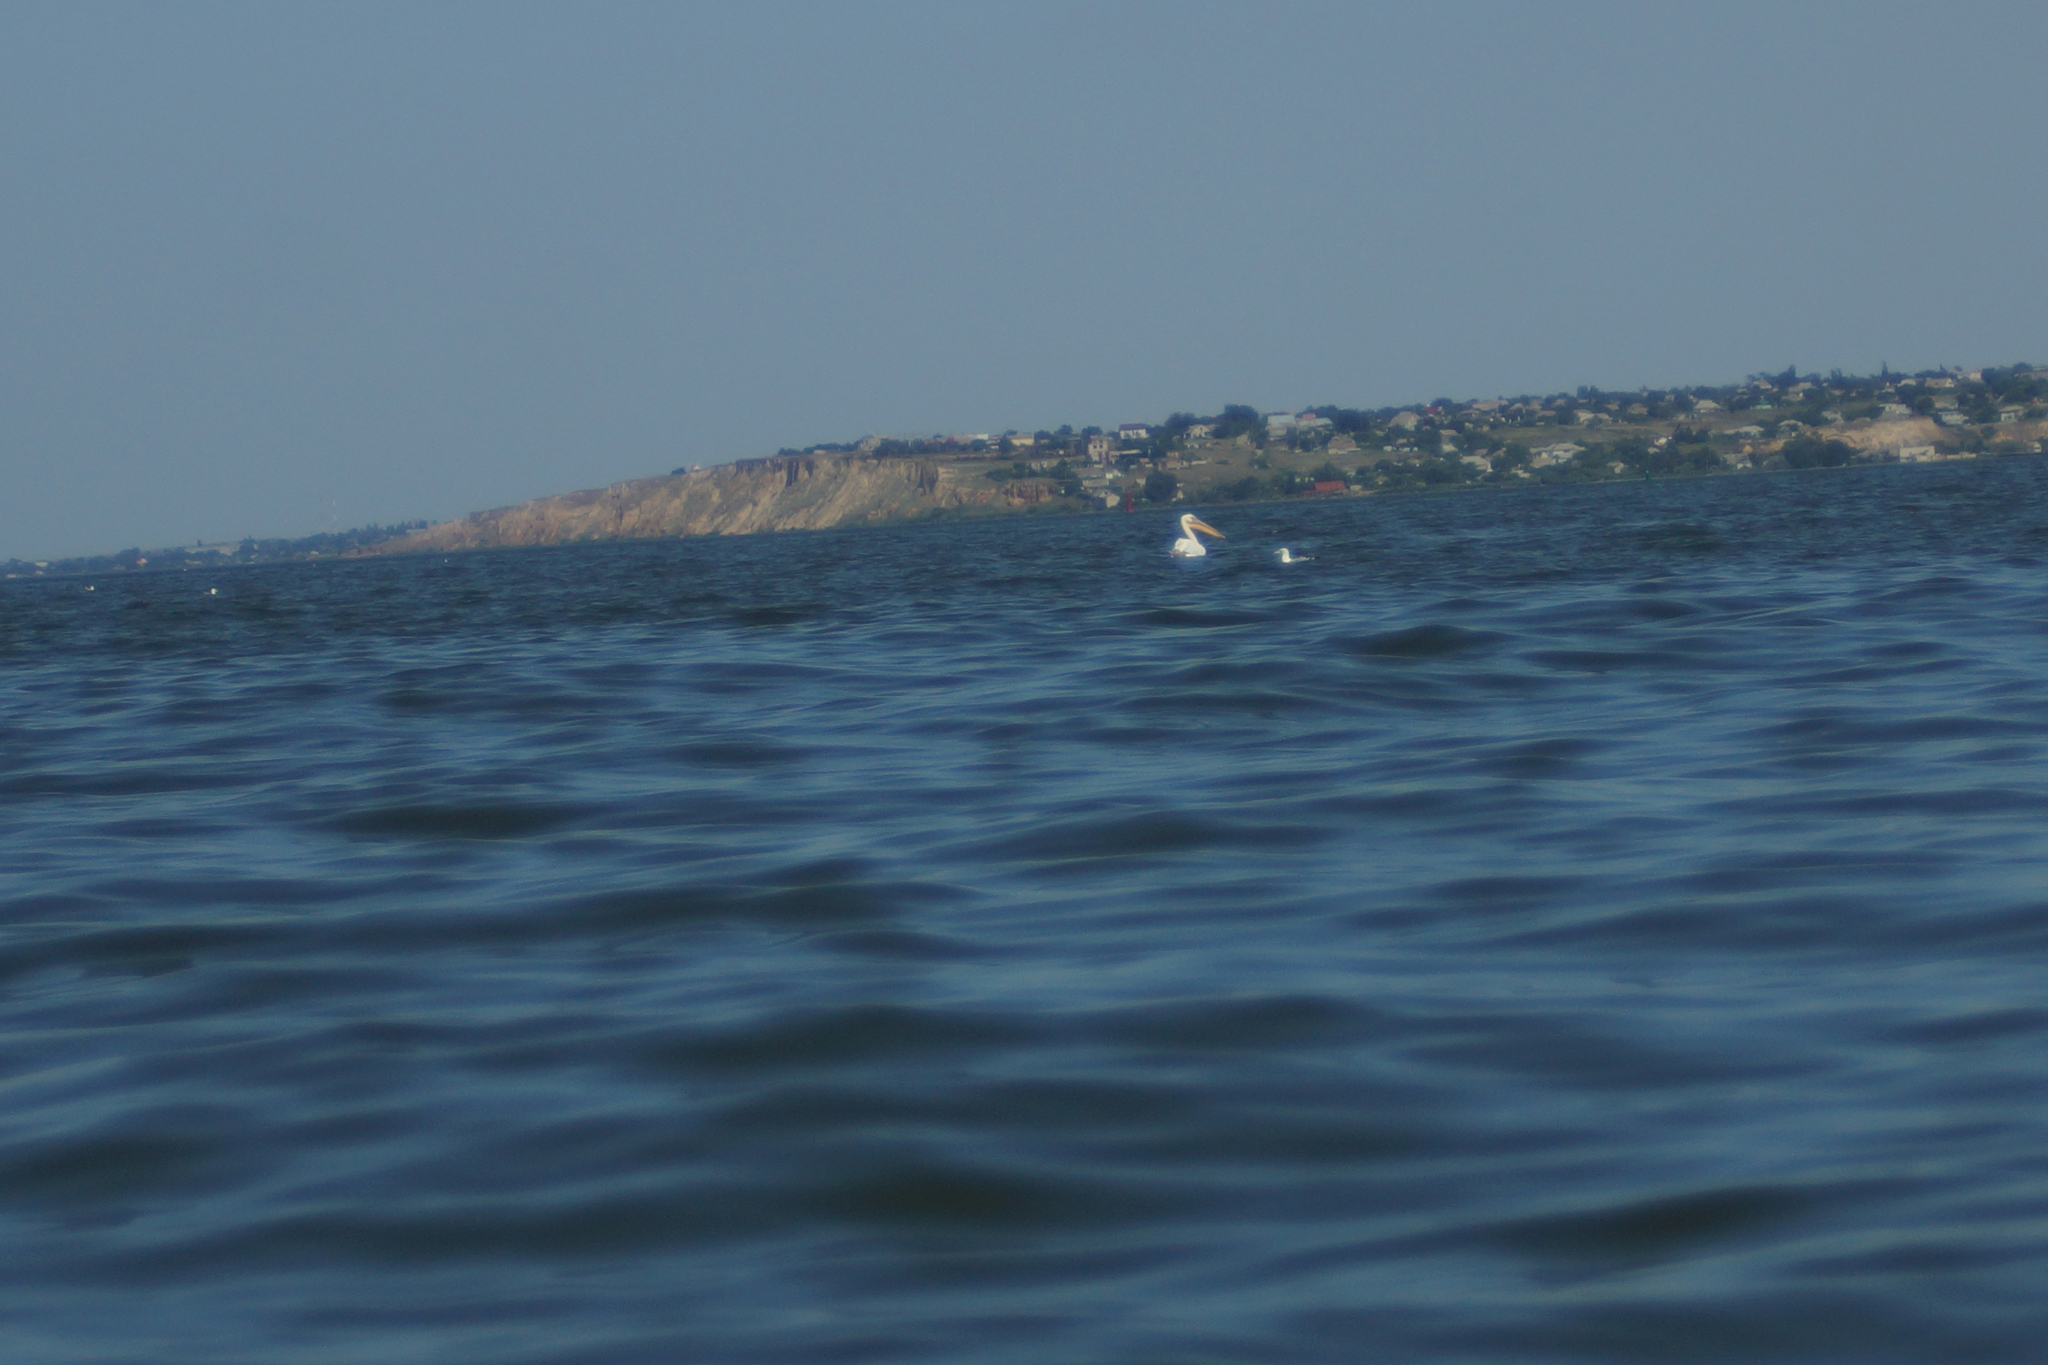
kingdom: Animalia
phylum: Chordata
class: Aves
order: Pelecaniformes
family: Pelecanidae
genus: Pelecanus
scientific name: Pelecanus onocrotalus
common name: Great white pelican
